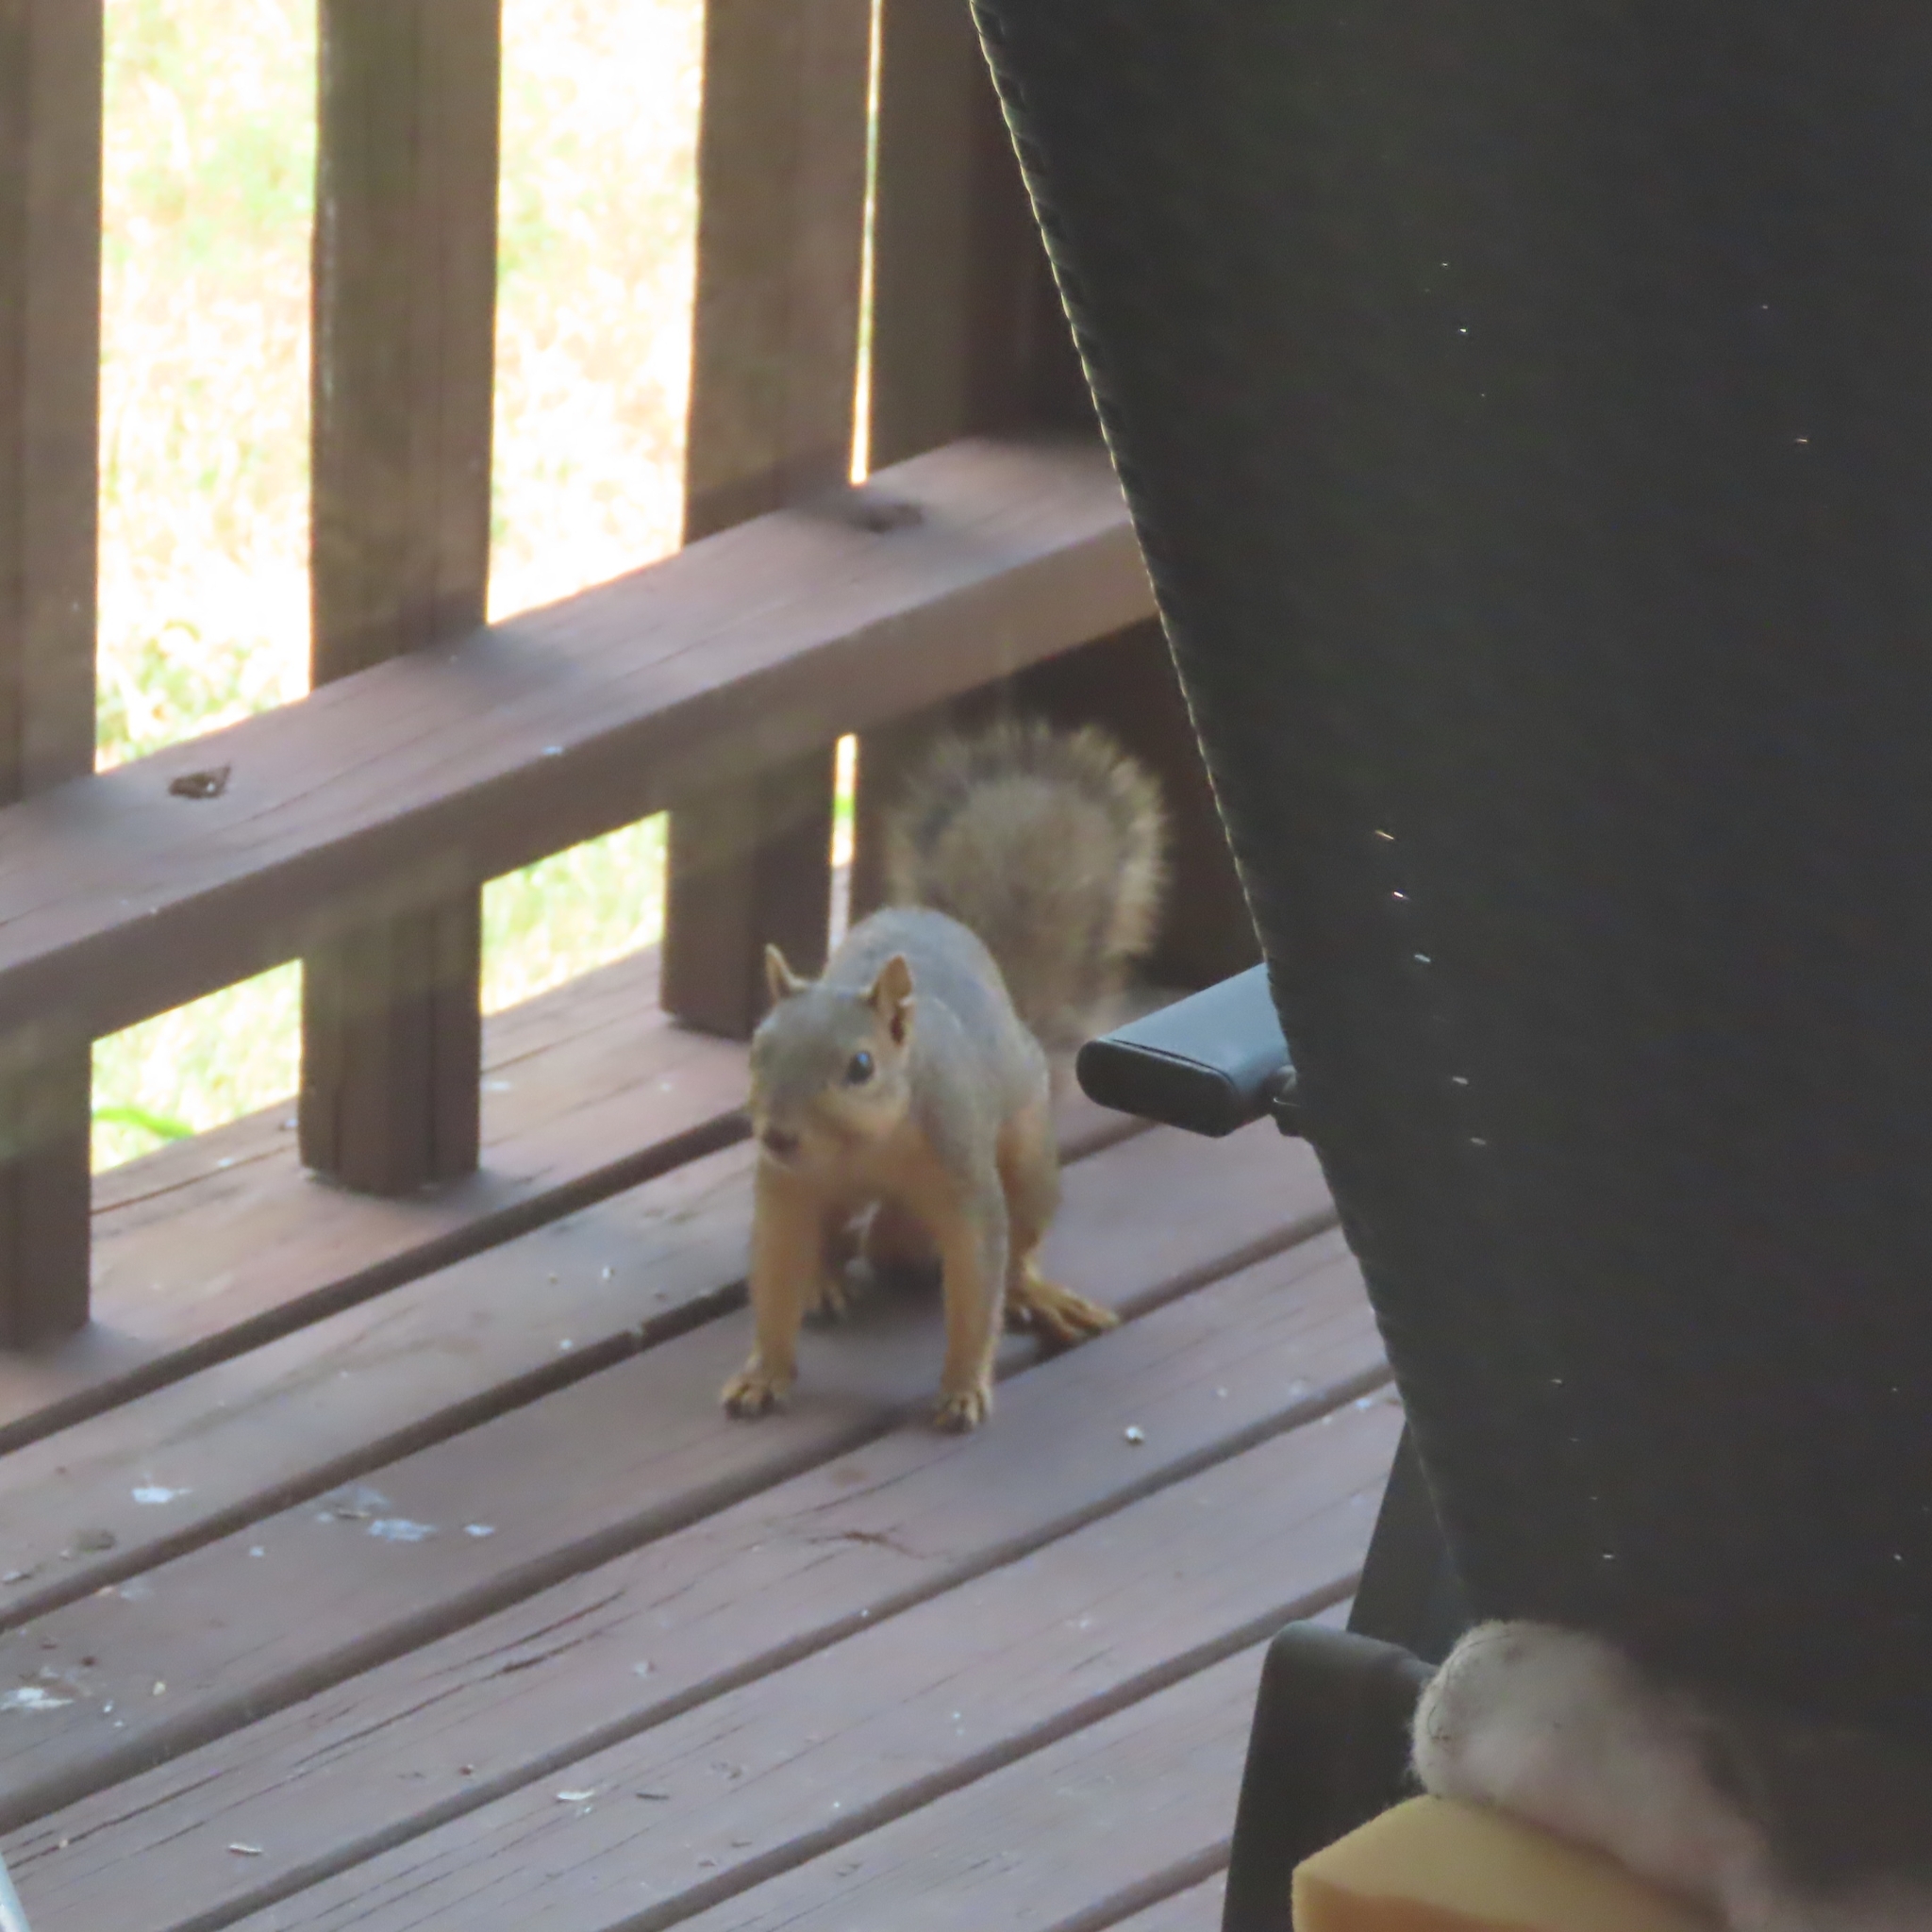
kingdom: Animalia
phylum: Chordata
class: Mammalia
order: Rodentia
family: Sciuridae
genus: Sciurus
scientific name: Sciurus niger
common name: Fox squirrel
